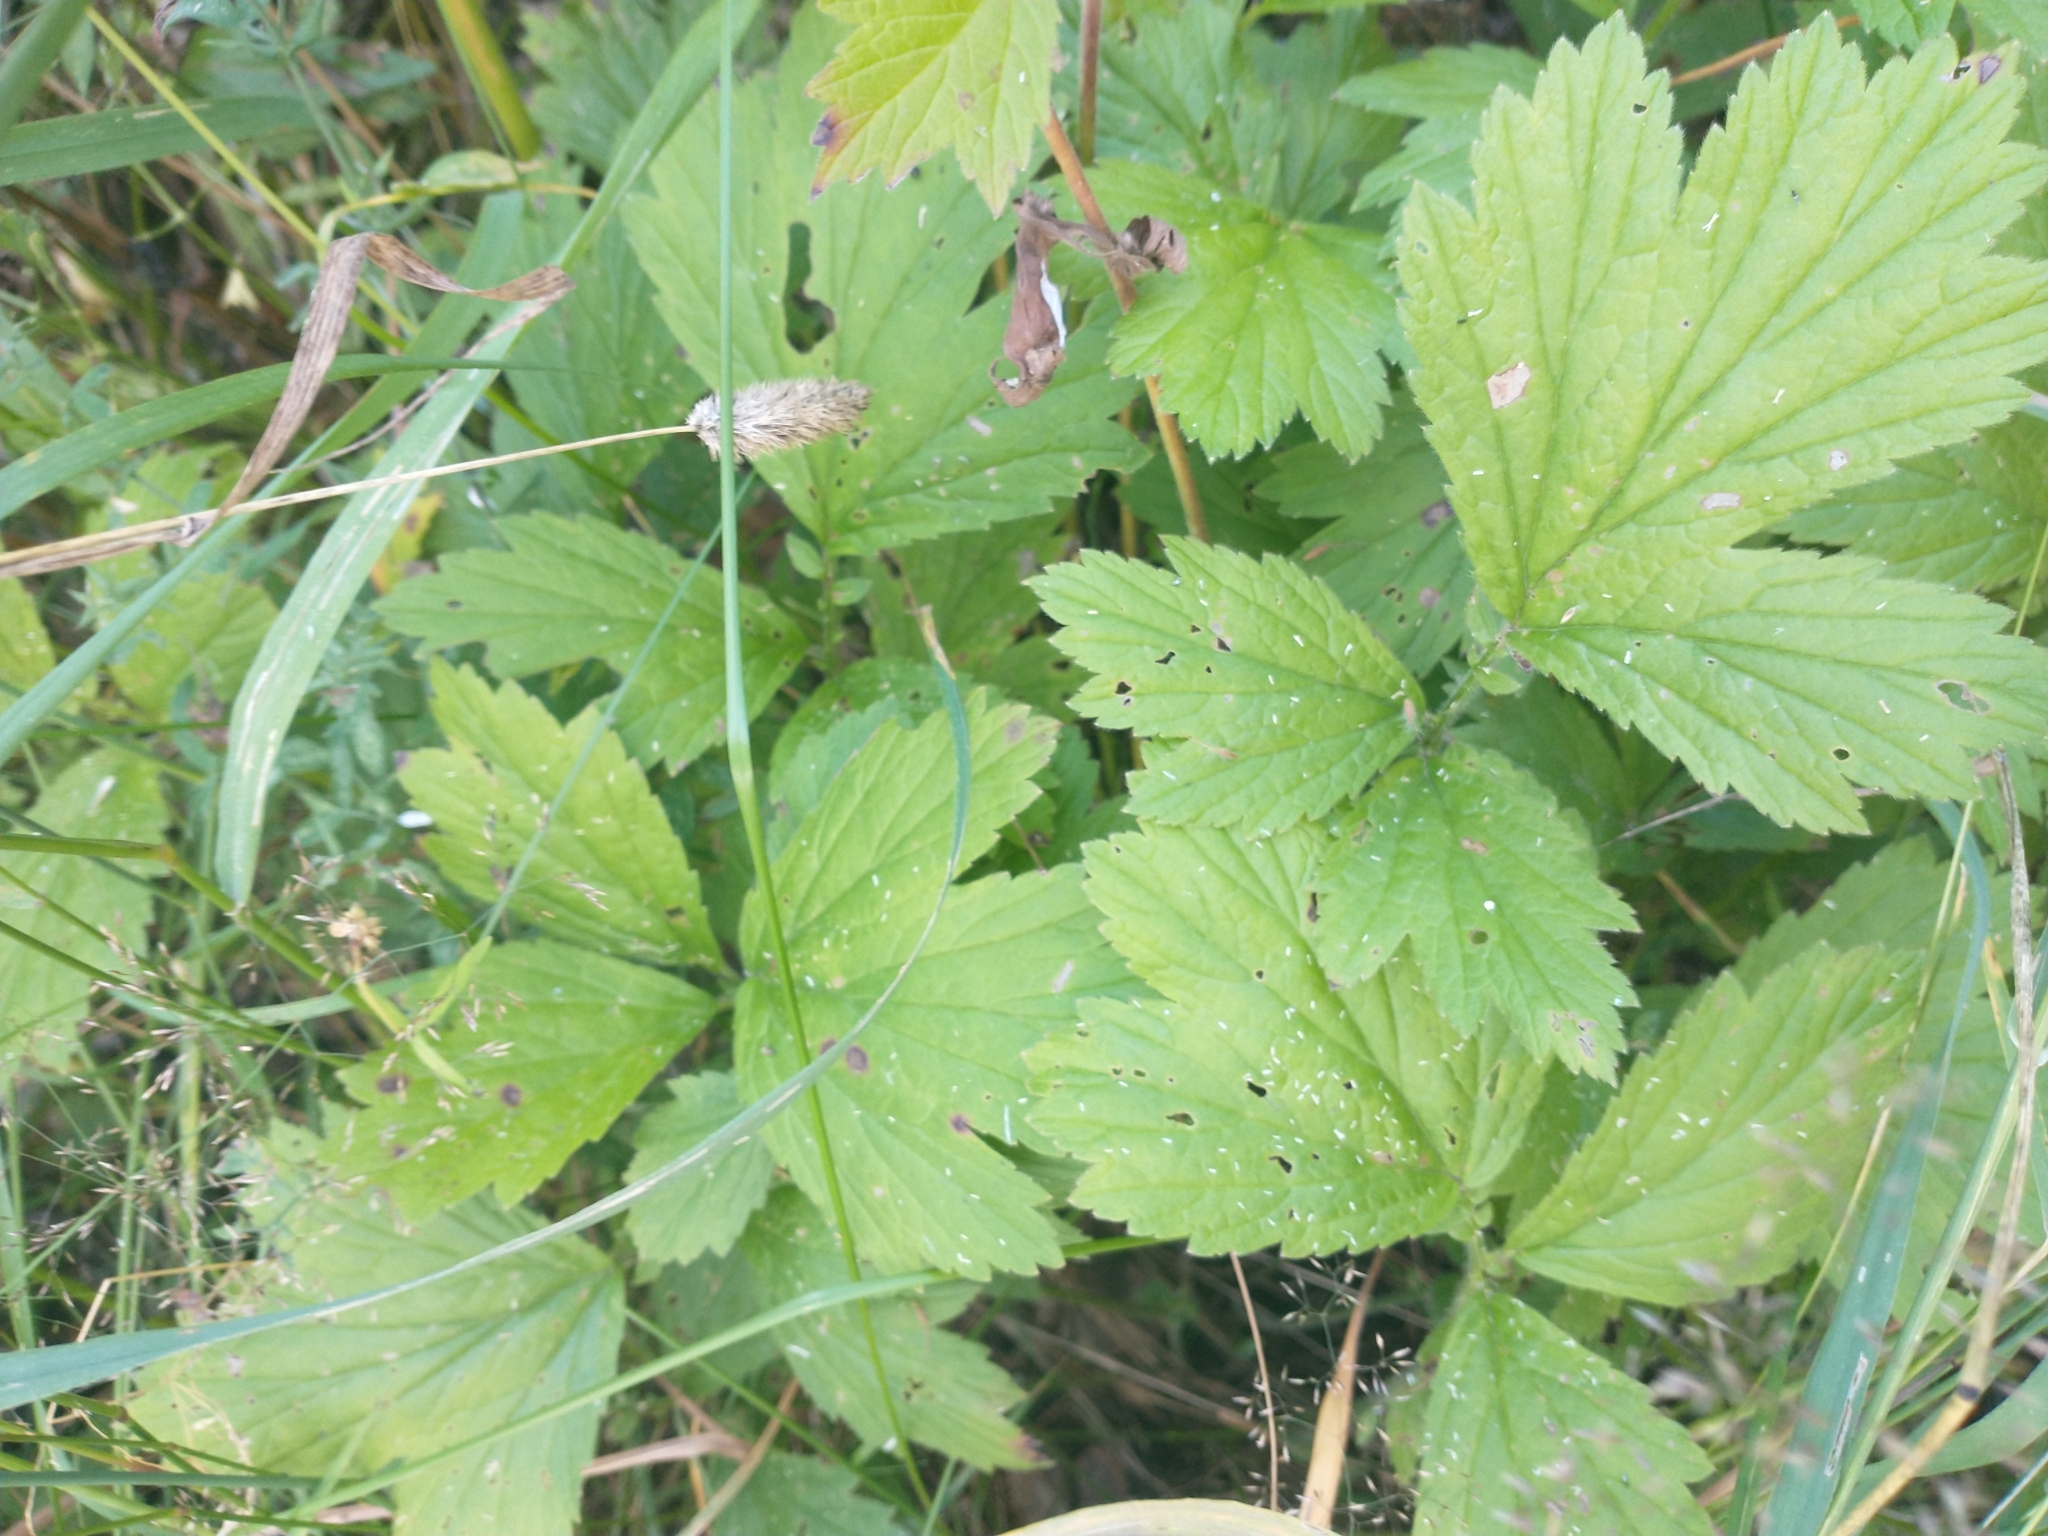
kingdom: Plantae
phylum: Tracheophyta
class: Magnoliopsida
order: Rosales
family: Rosaceae
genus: Geum
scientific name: Geum rivale
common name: Water avens
